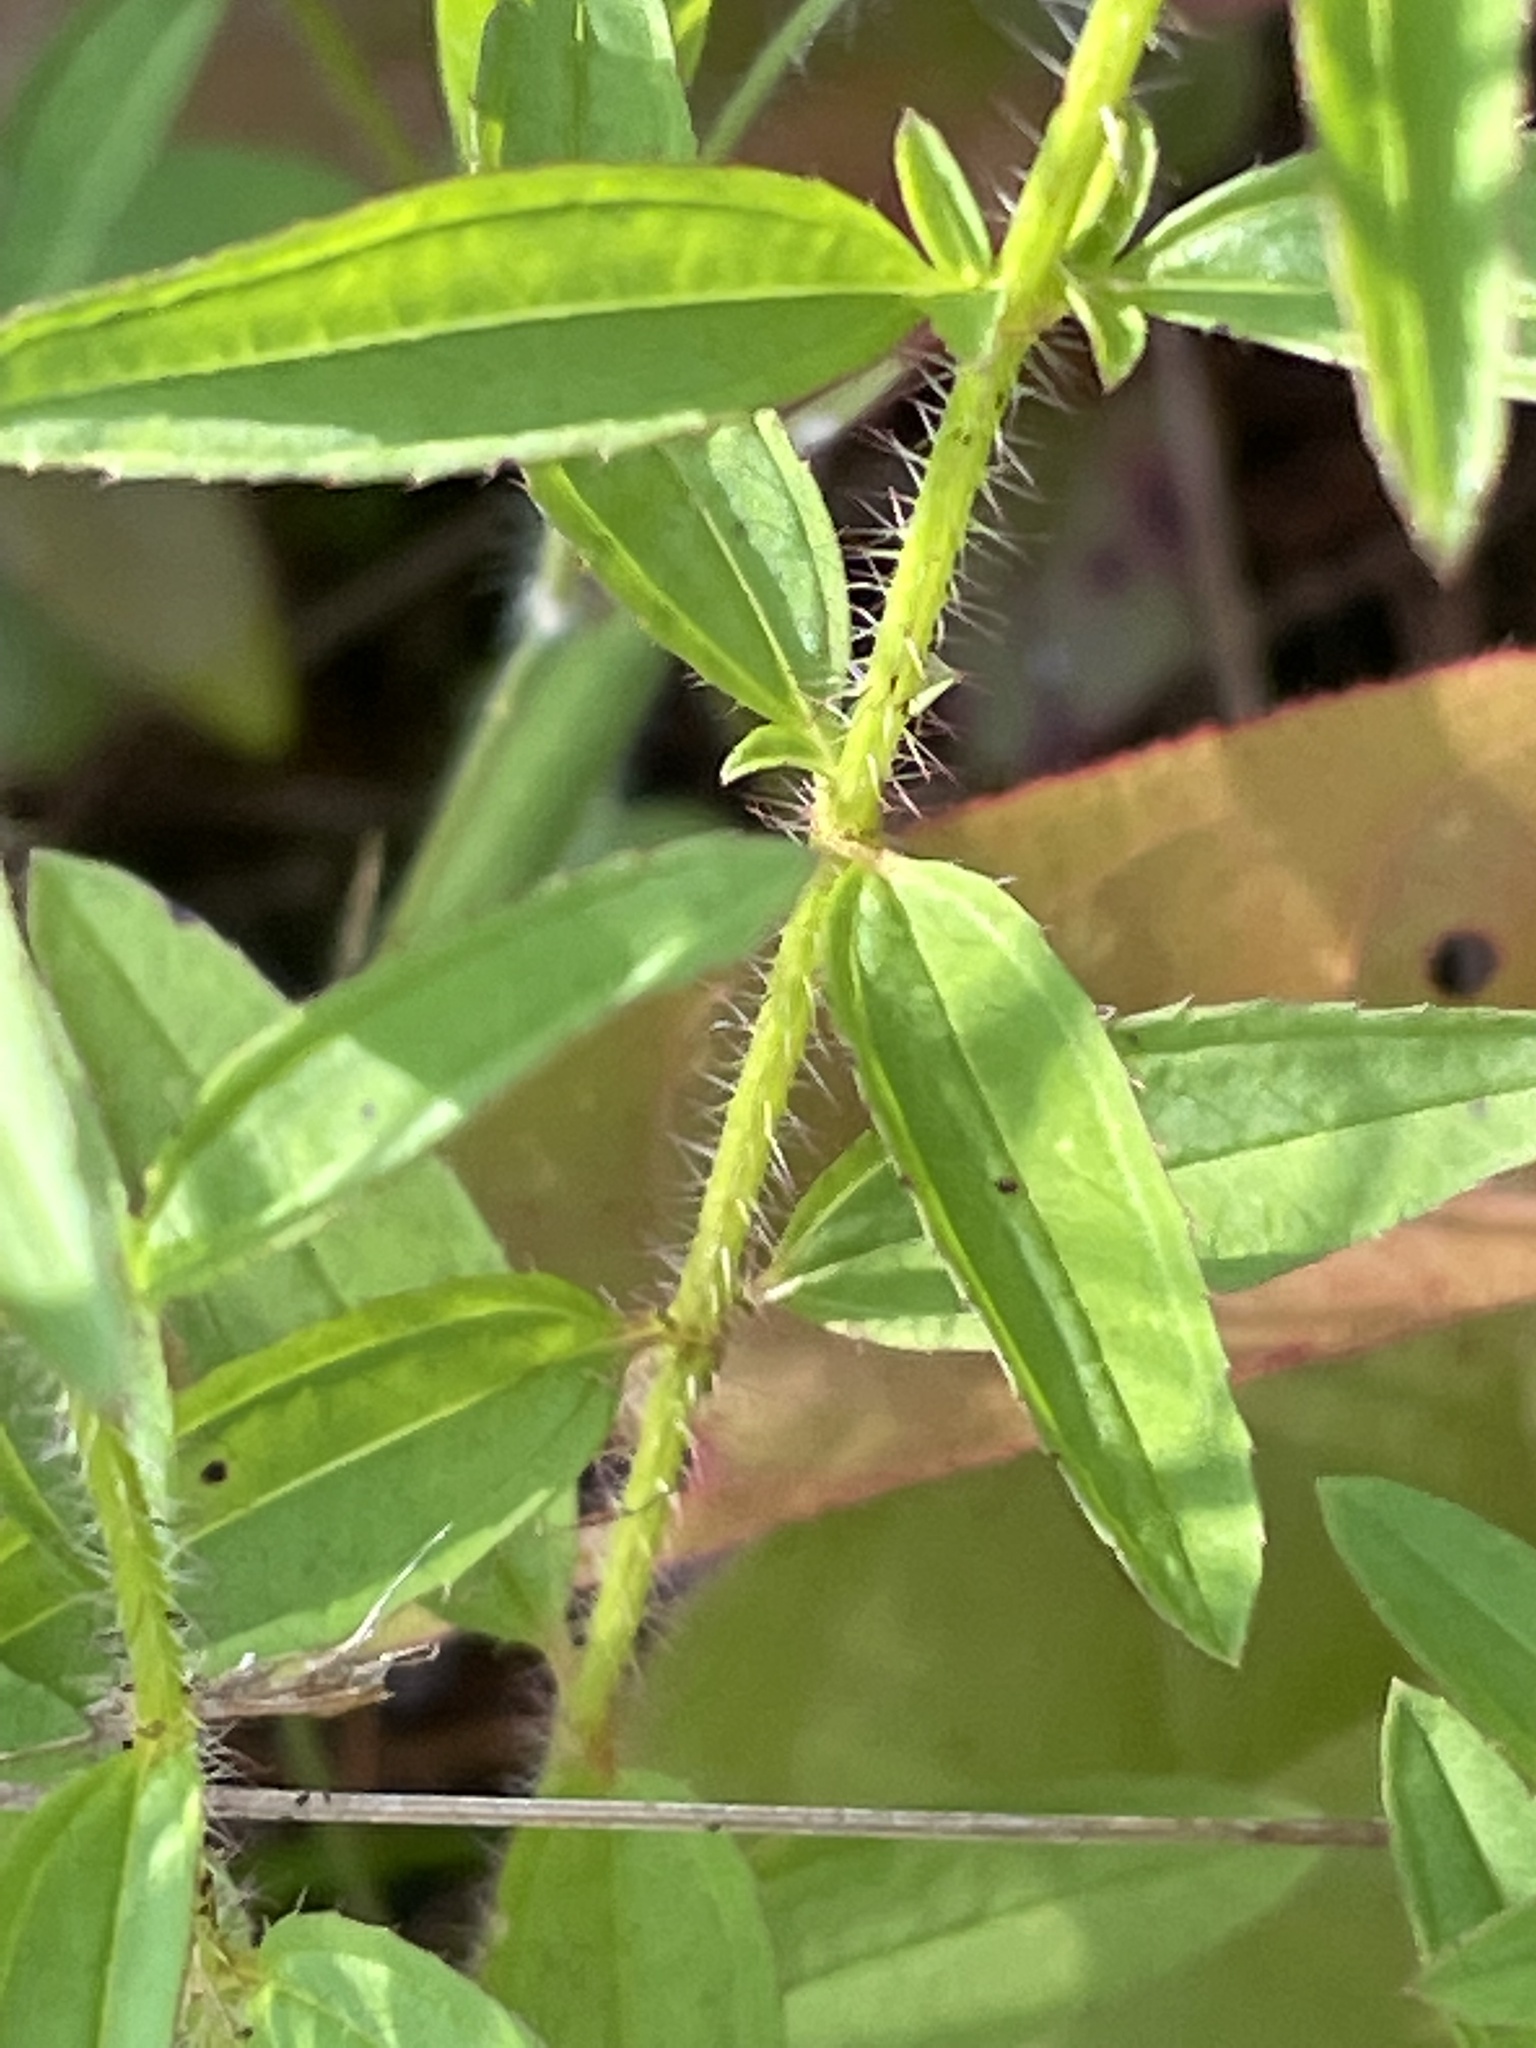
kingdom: Plantae
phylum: Tracheophyta
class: Magnoliopsida
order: Myrtales
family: Melastomataceae
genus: Rhexia
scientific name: Rhexia mariana
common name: Dull meadow-pitcher
